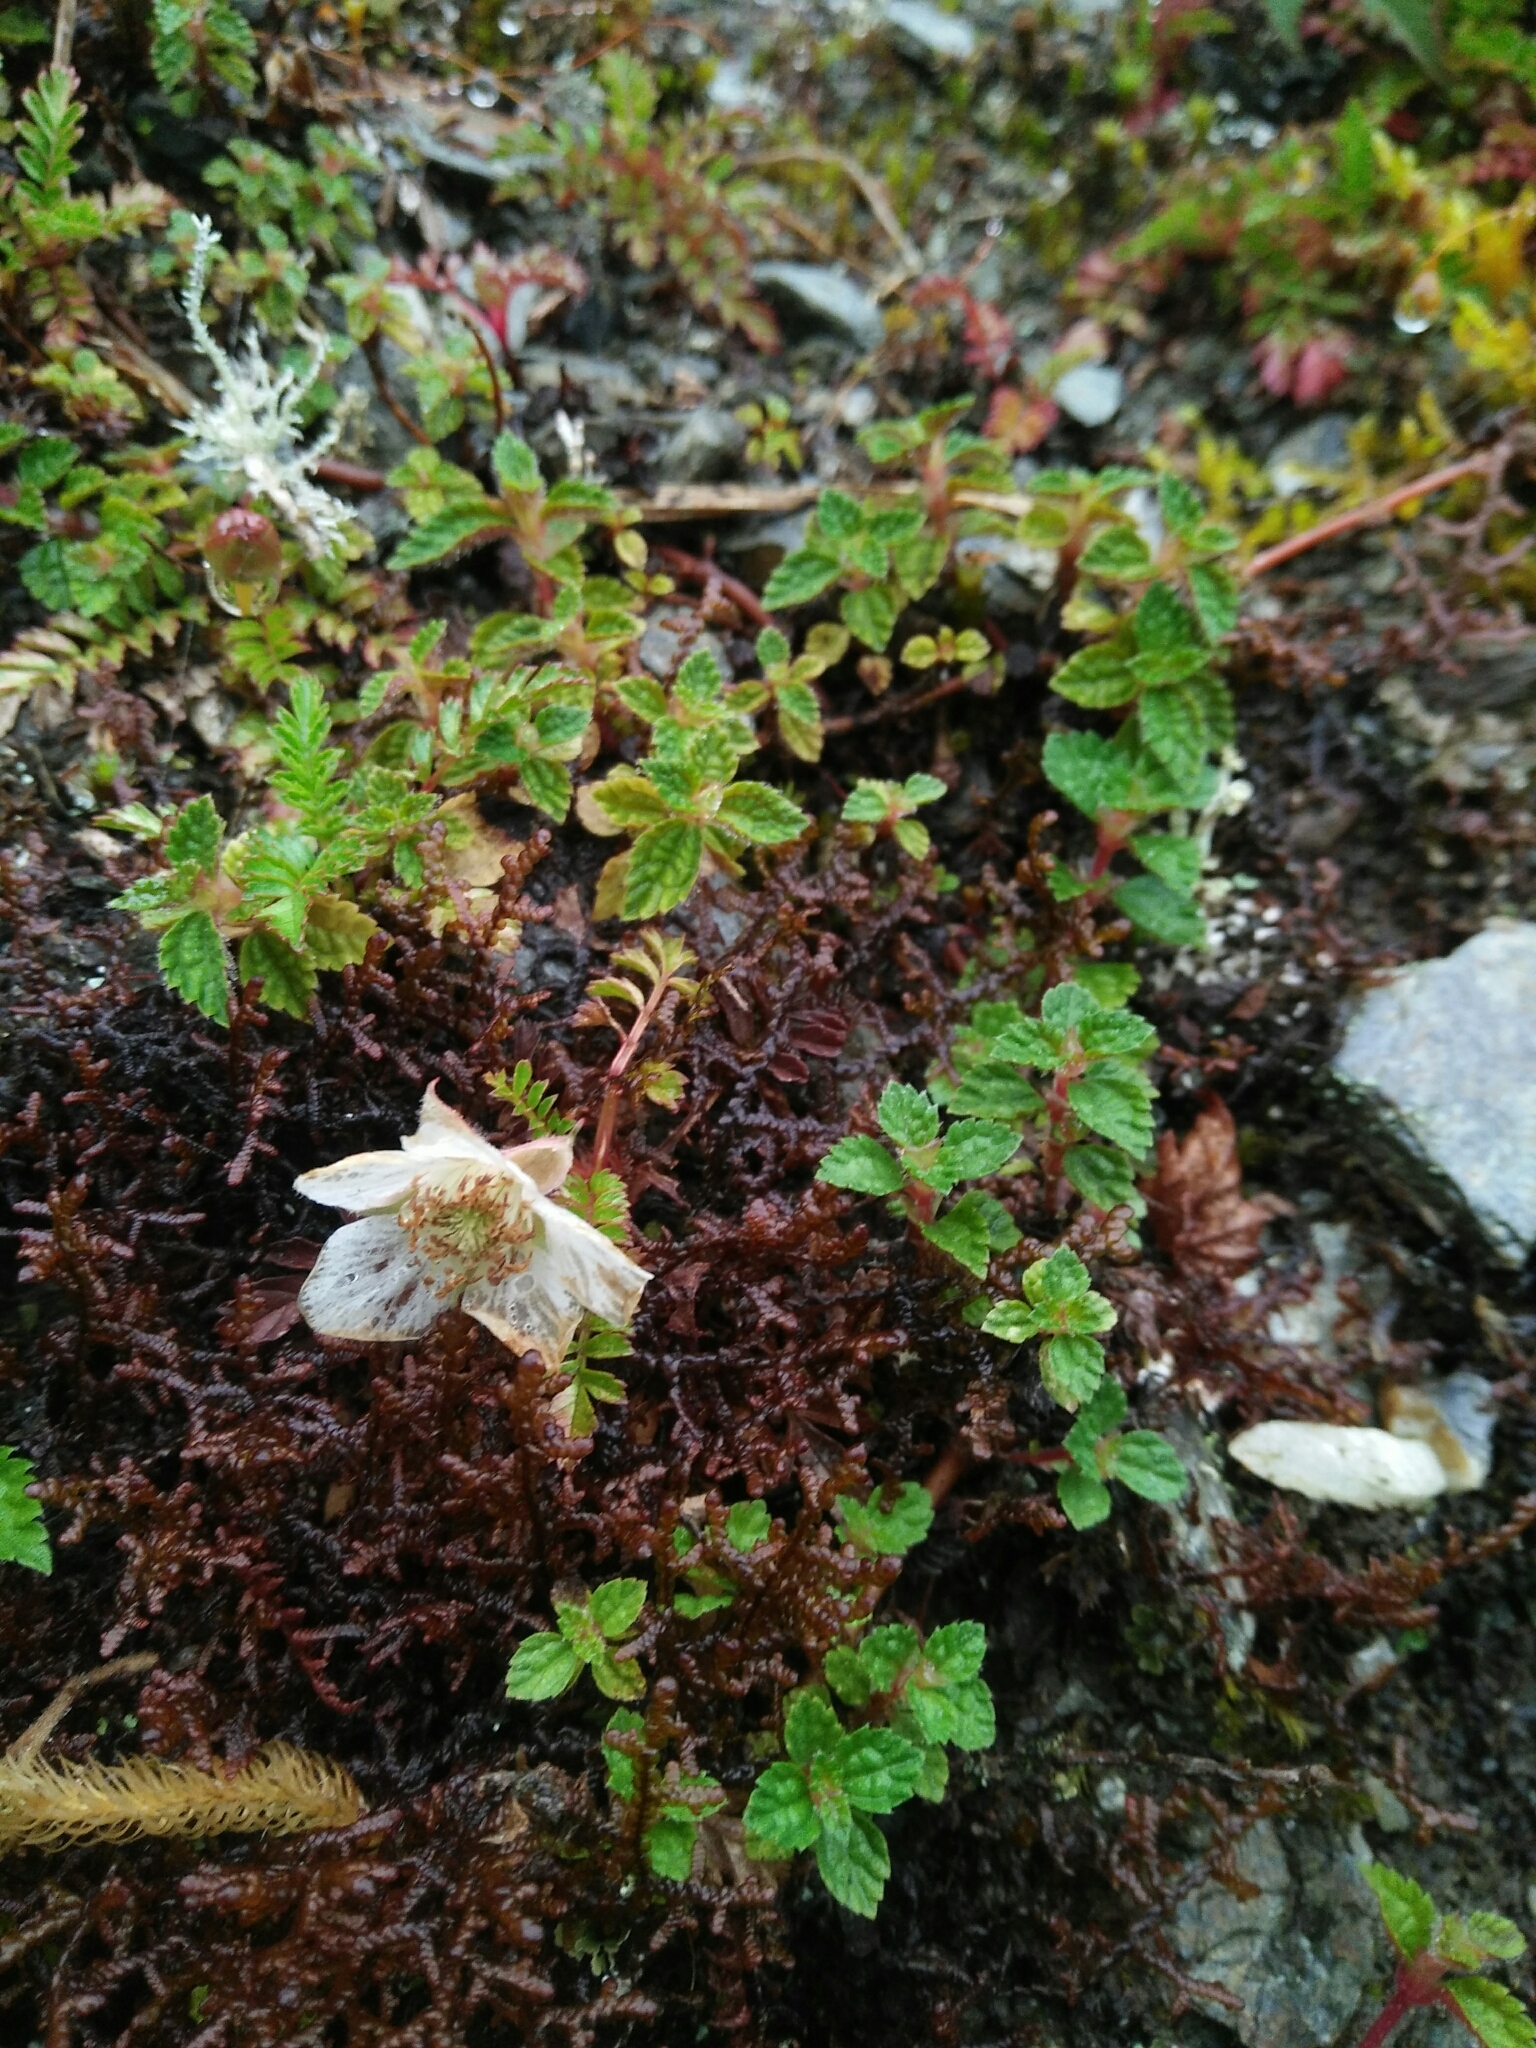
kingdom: Plantae
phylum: Tracheophyta
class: Magnoliopsida
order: Rosales
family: Rosaceae
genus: Rubus
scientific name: Rubus taiwanicola
